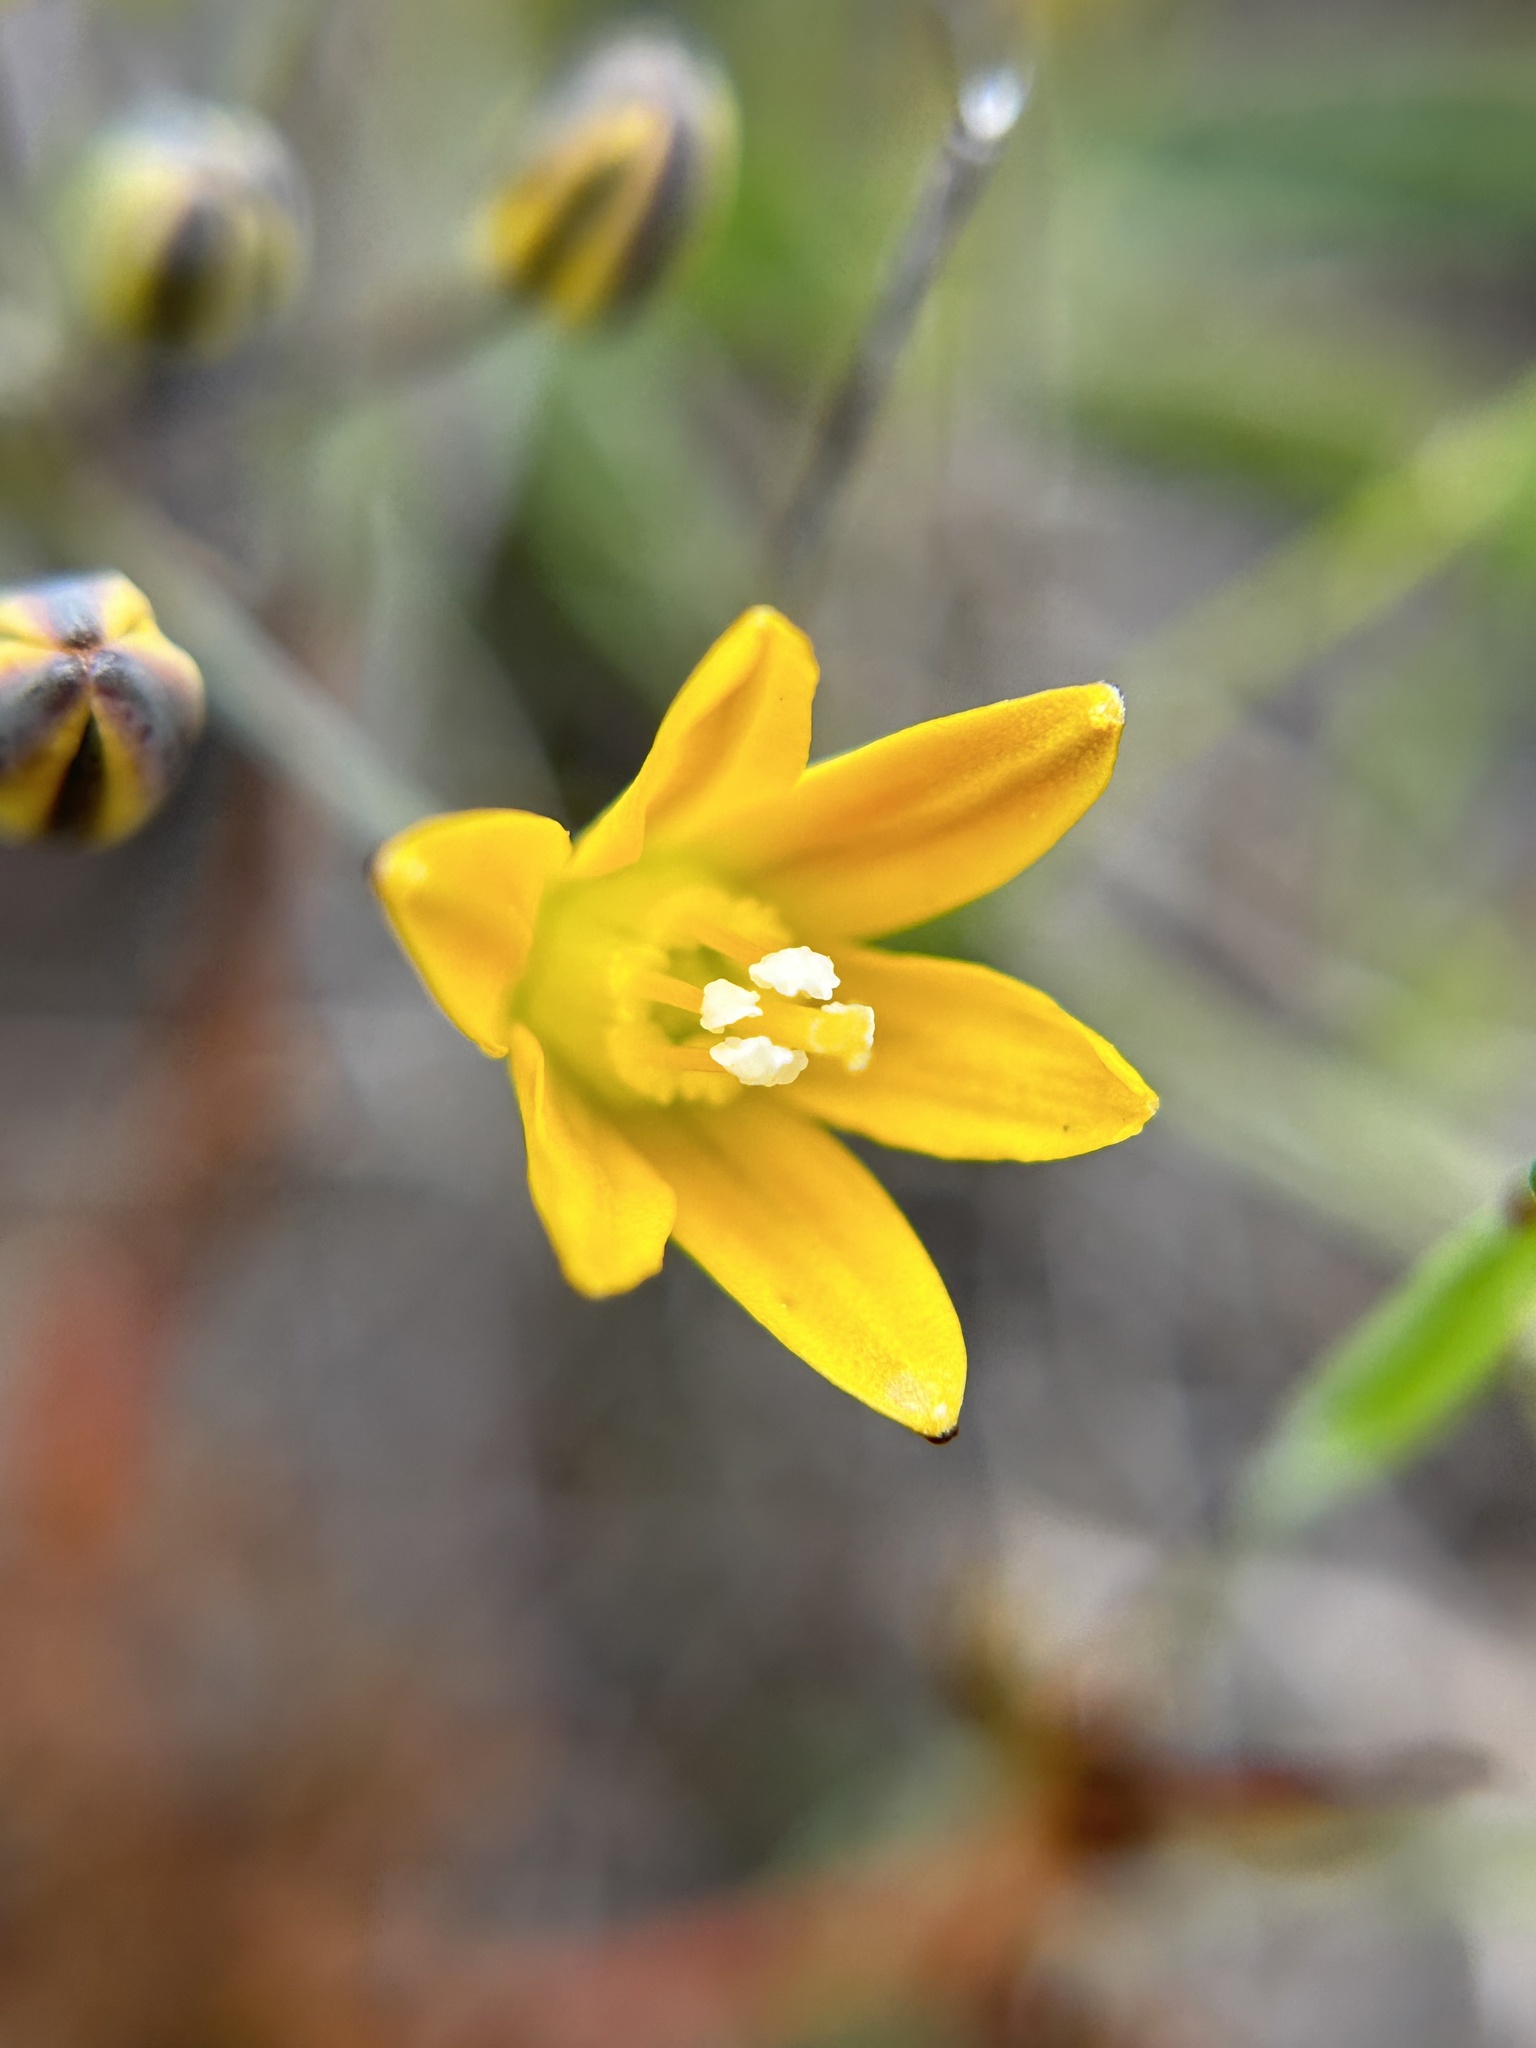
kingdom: Plantae
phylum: Tracheophyta
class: Liliopsida
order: Asparagales
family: Asparagaceae
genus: Bloomeria
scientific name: Bloomeria humilis
